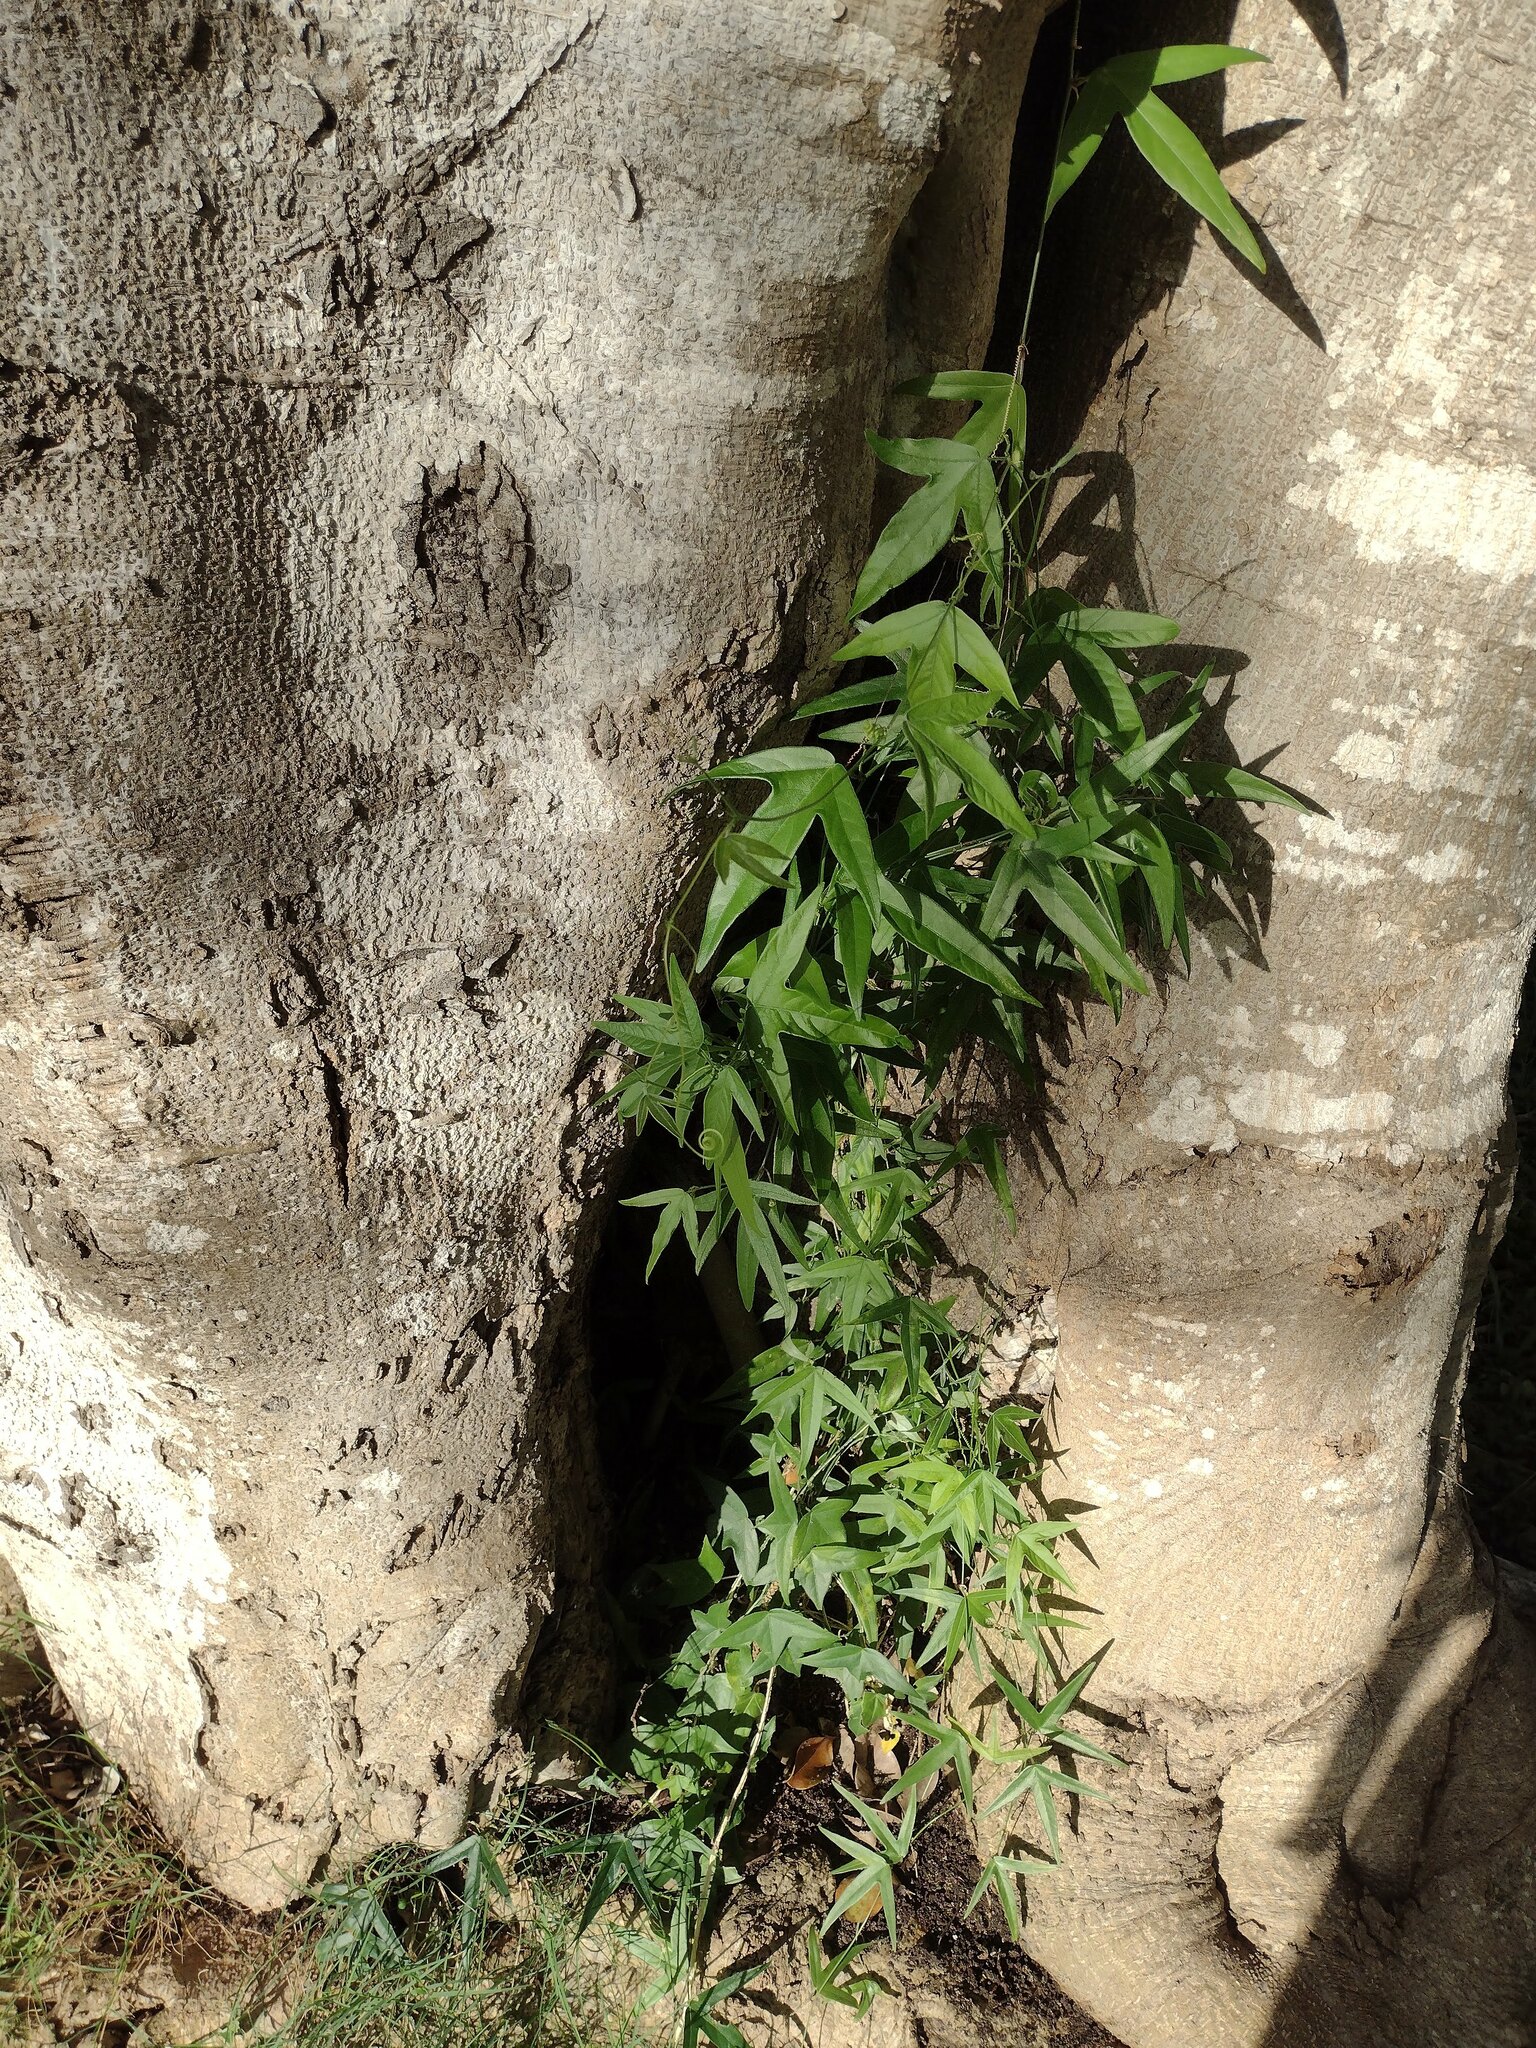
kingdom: Plantae
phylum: Tracheophyta
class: Magnoliopsida
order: Malpighiales
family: Passifloraceae
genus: Passiflora
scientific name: Passiflora suberosa
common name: Wild passionfruit
